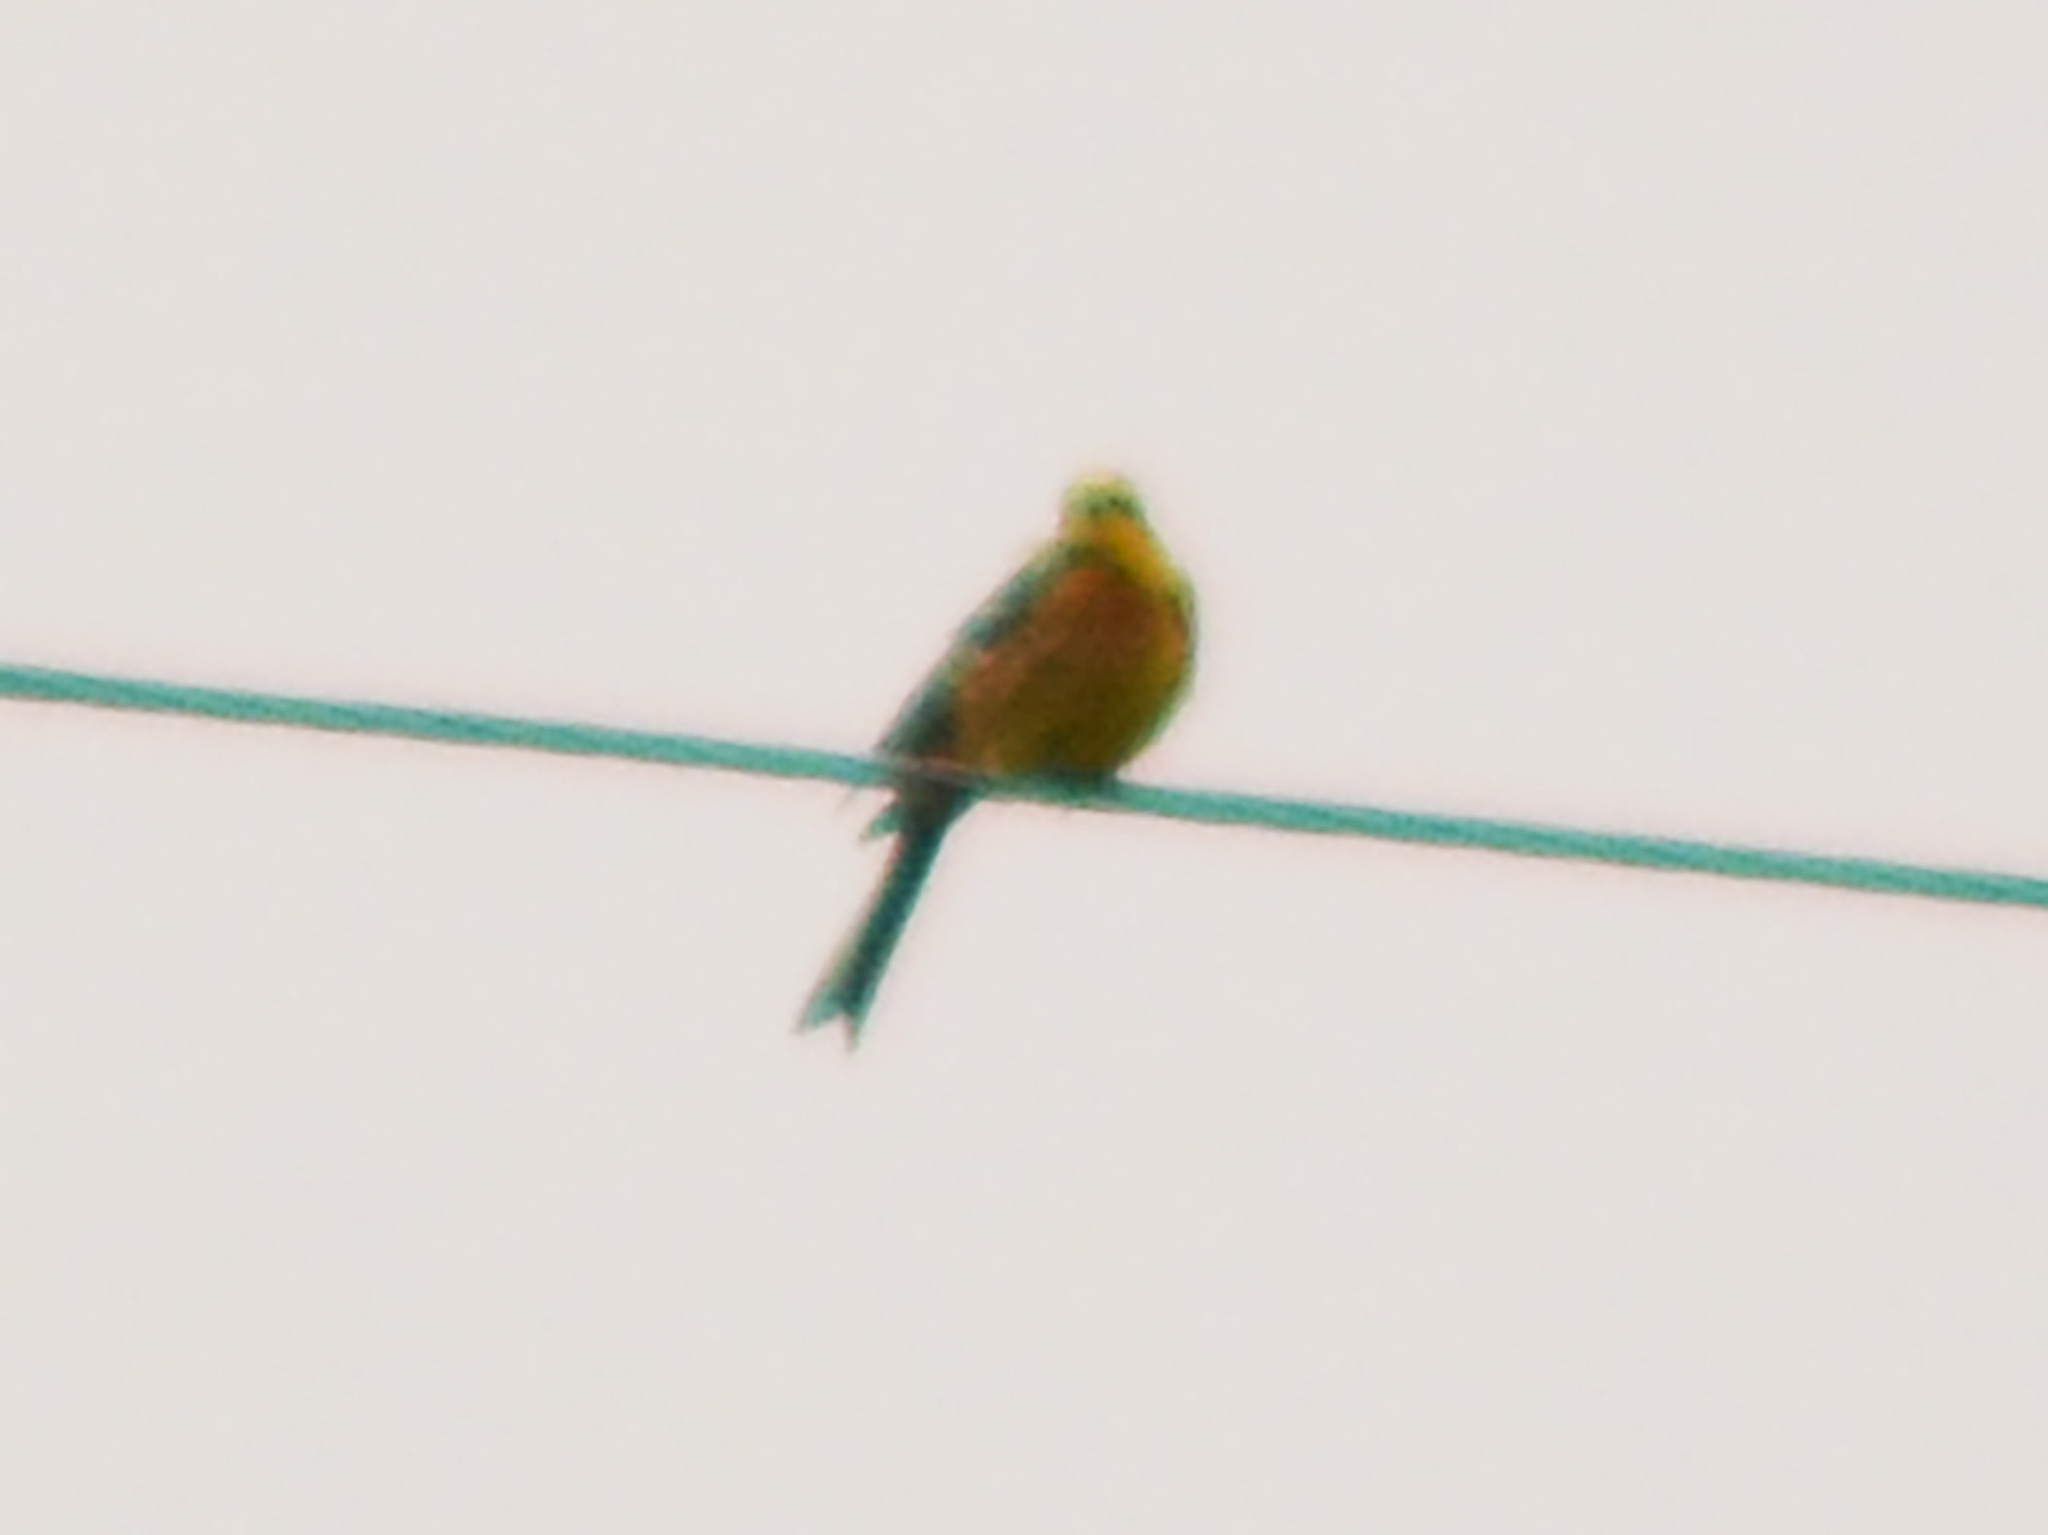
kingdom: Animalia
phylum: Chordata
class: Aves
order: Passeriformes
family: Emberizidae
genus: Emberiza
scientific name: Emberiza citrinella
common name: Yellowhammer
